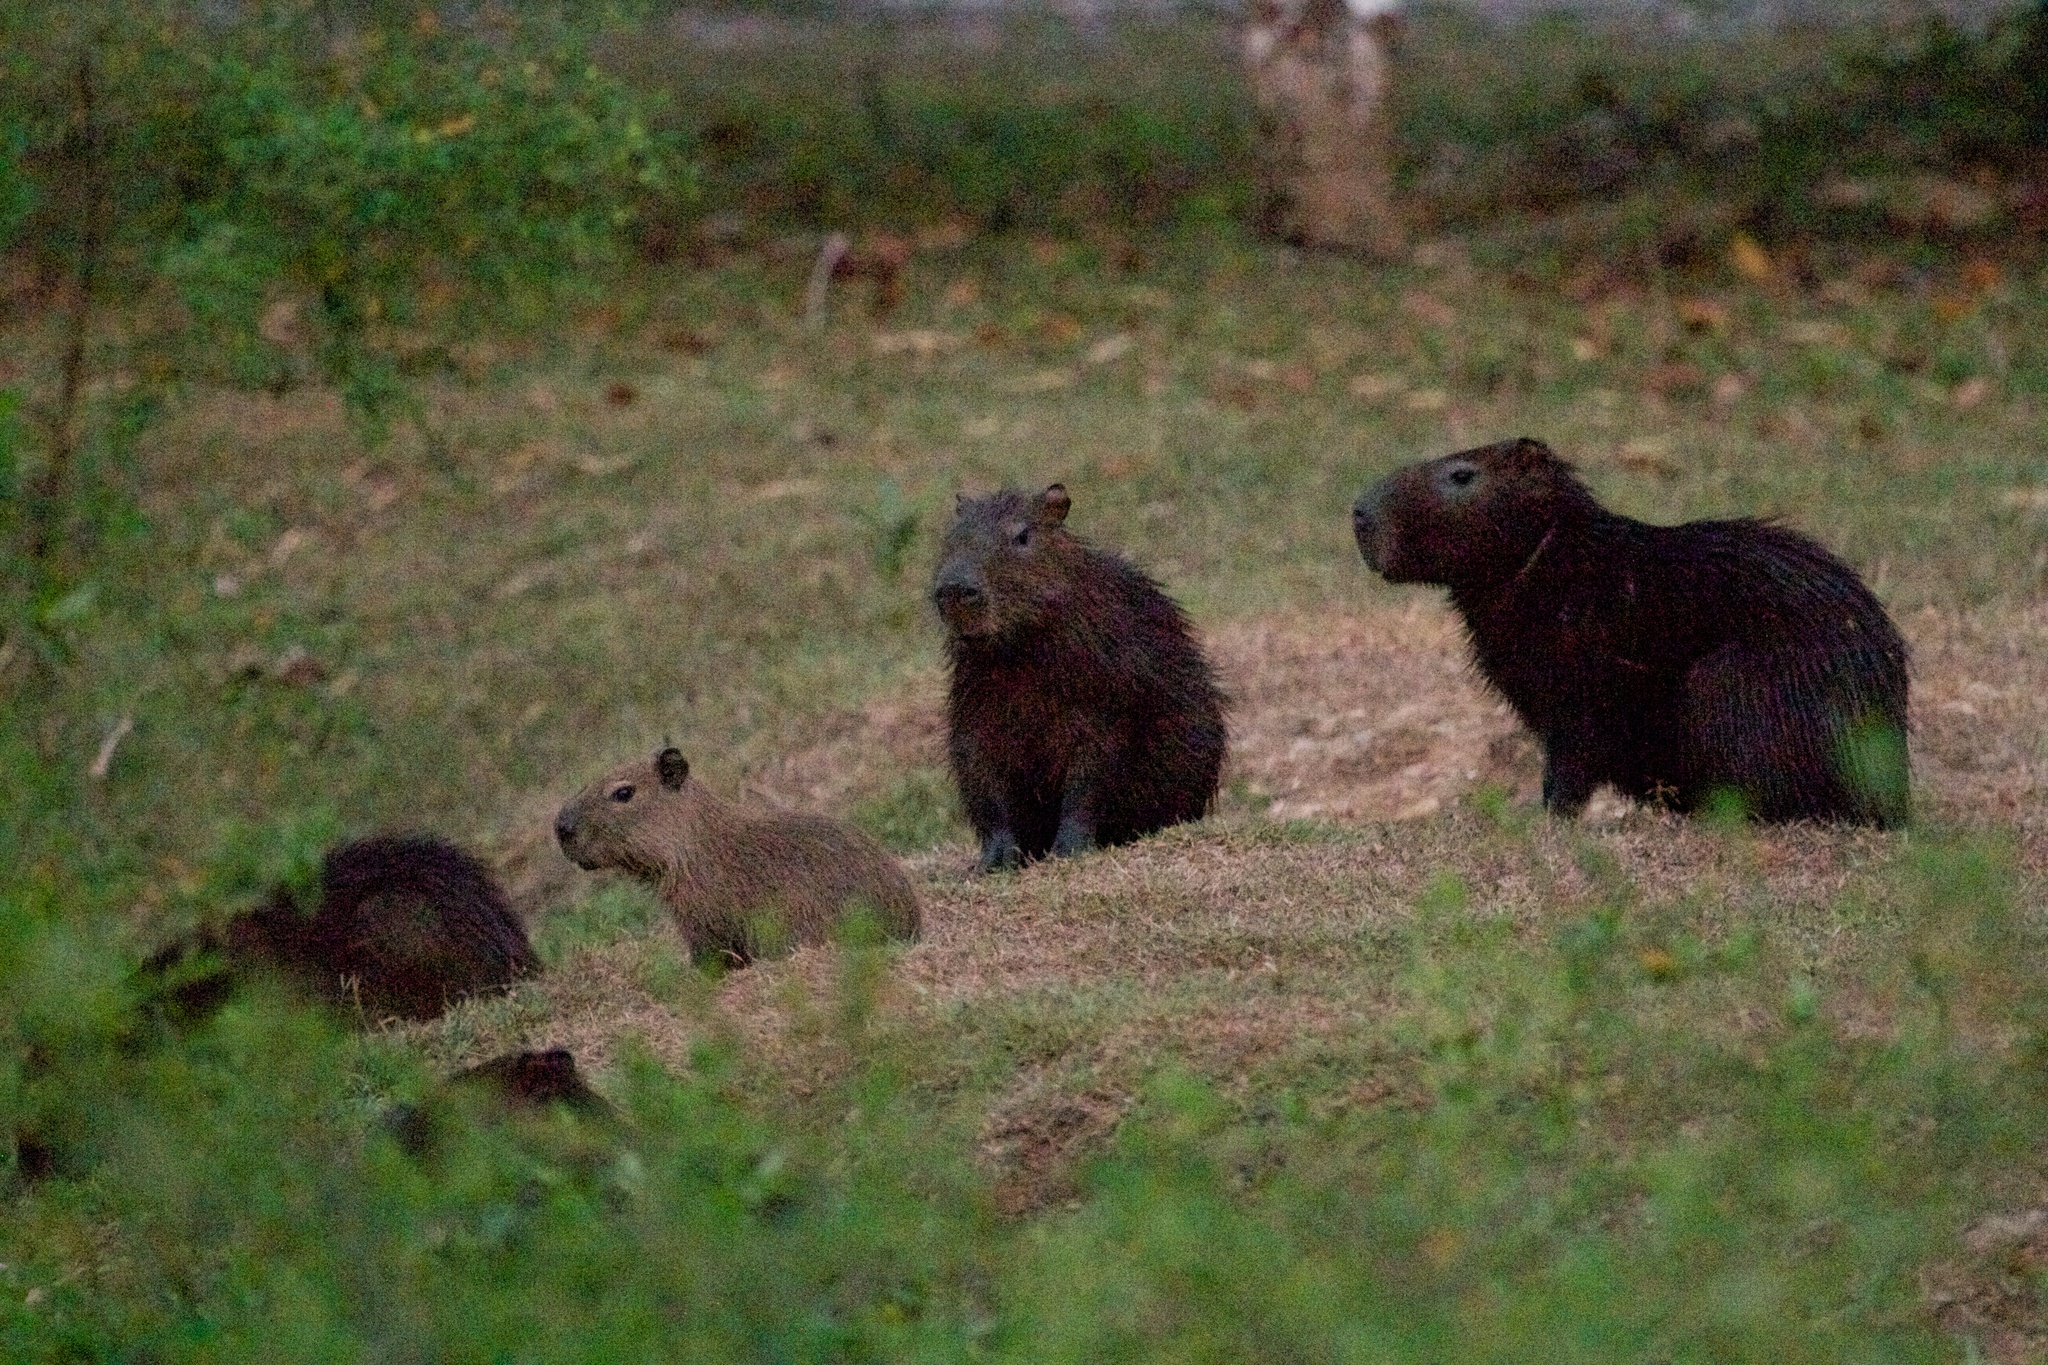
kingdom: Animalia
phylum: Chordata
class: Mammalia
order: Rodentia
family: Caviidae
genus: Hydrochoerus
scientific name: Hydrochoerus isthmius
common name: Lesser capybara
